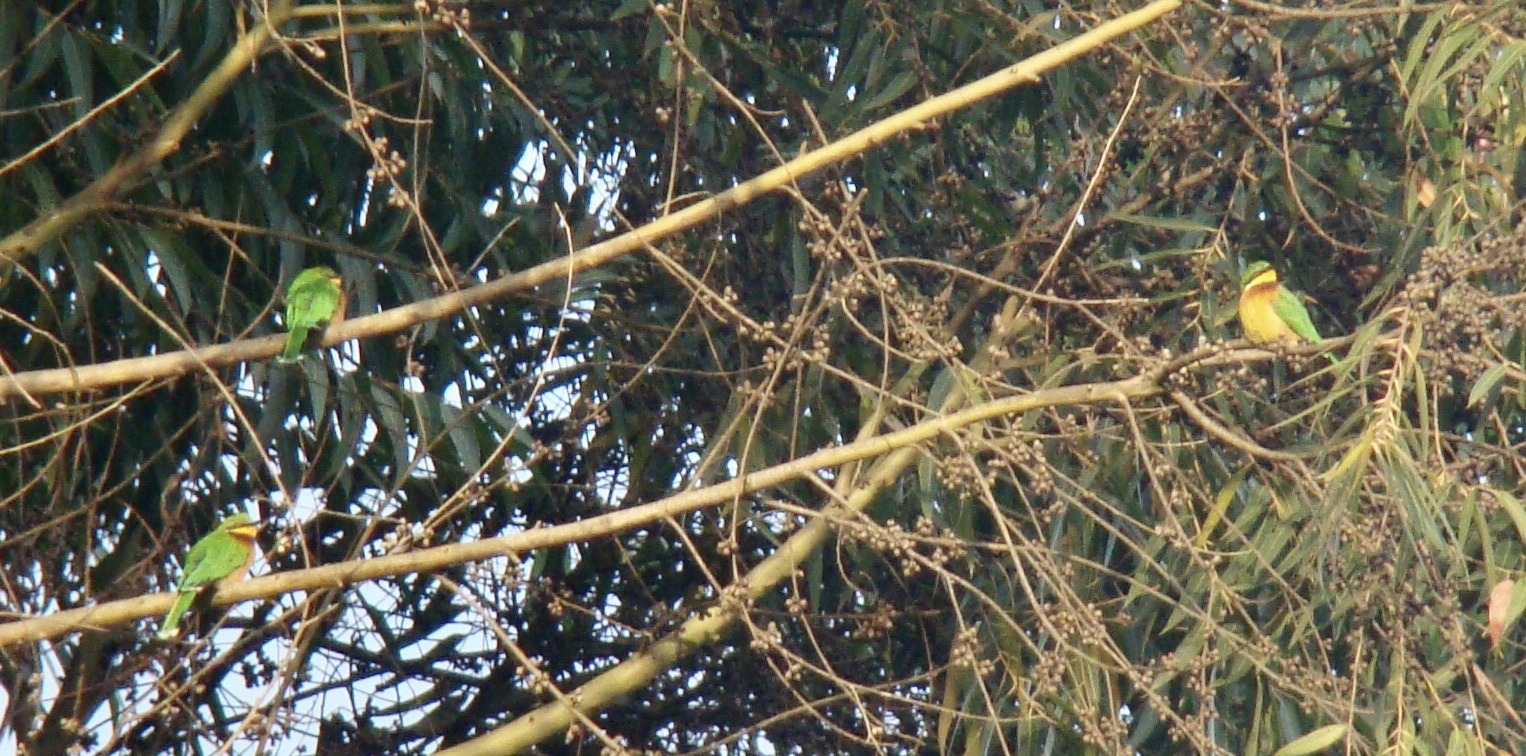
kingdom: Animalia
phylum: Chordata
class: Aves
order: Coraciiformes
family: Meropidae
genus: Merops
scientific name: Merops oreobates
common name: Cinnamon-chested bee-eater
